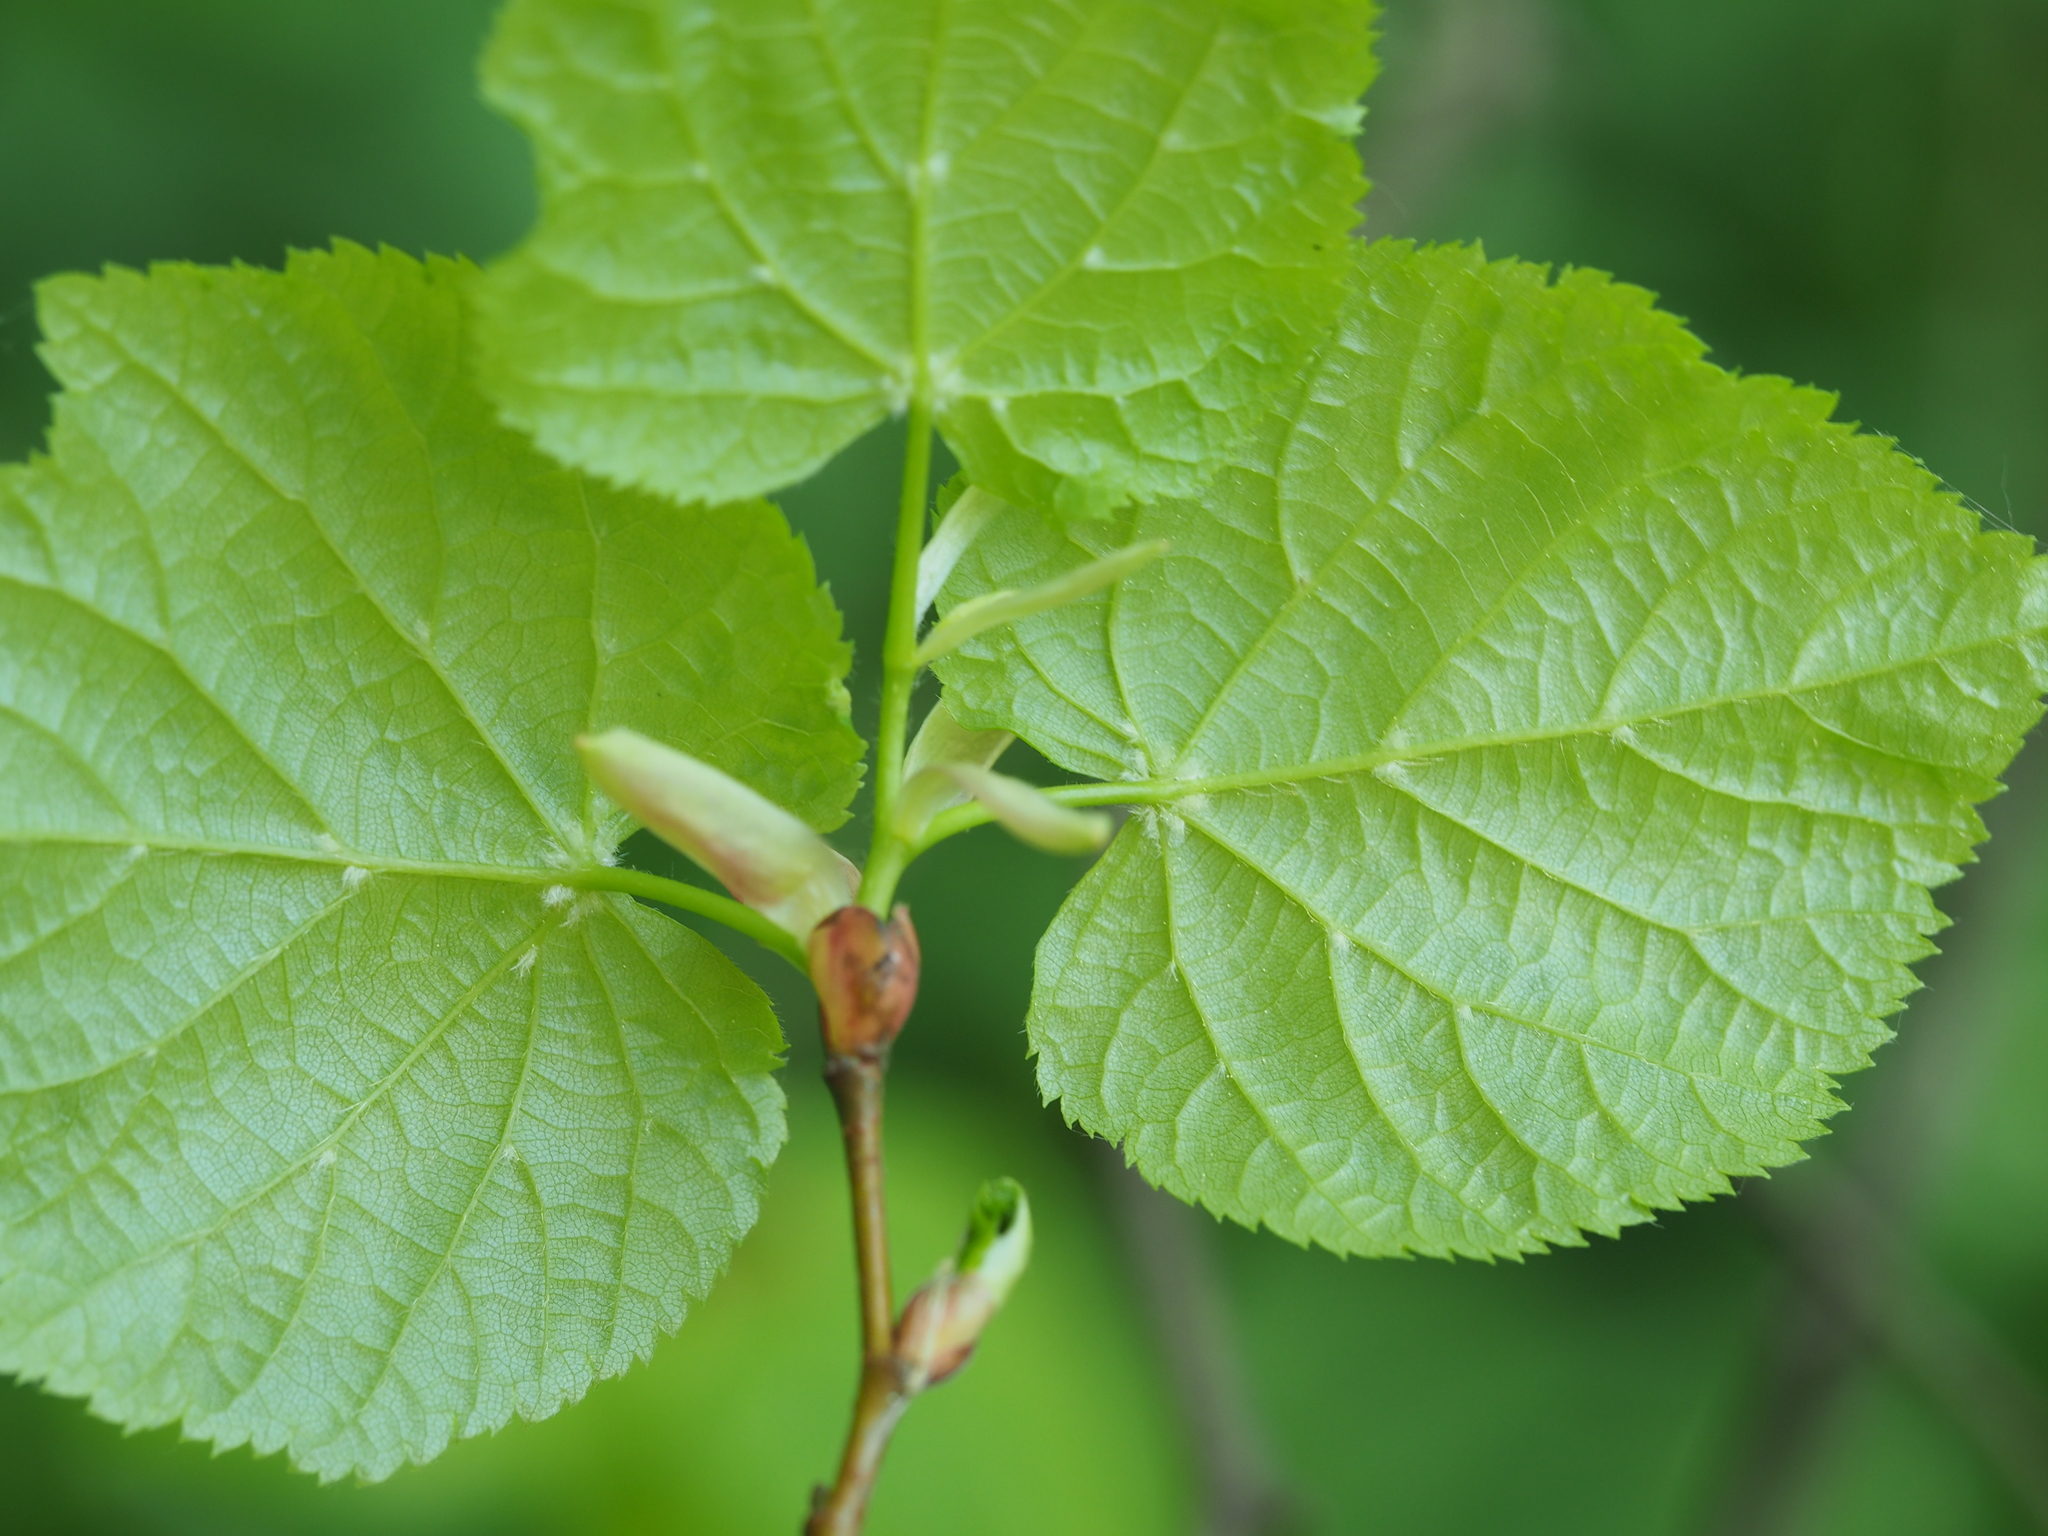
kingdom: Plantae
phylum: Tracheophyta
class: Magnoliopsida
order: Malvales
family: Malvaceae
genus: Tilia
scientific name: Tilia platyphyllos
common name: Large-leaved lime
